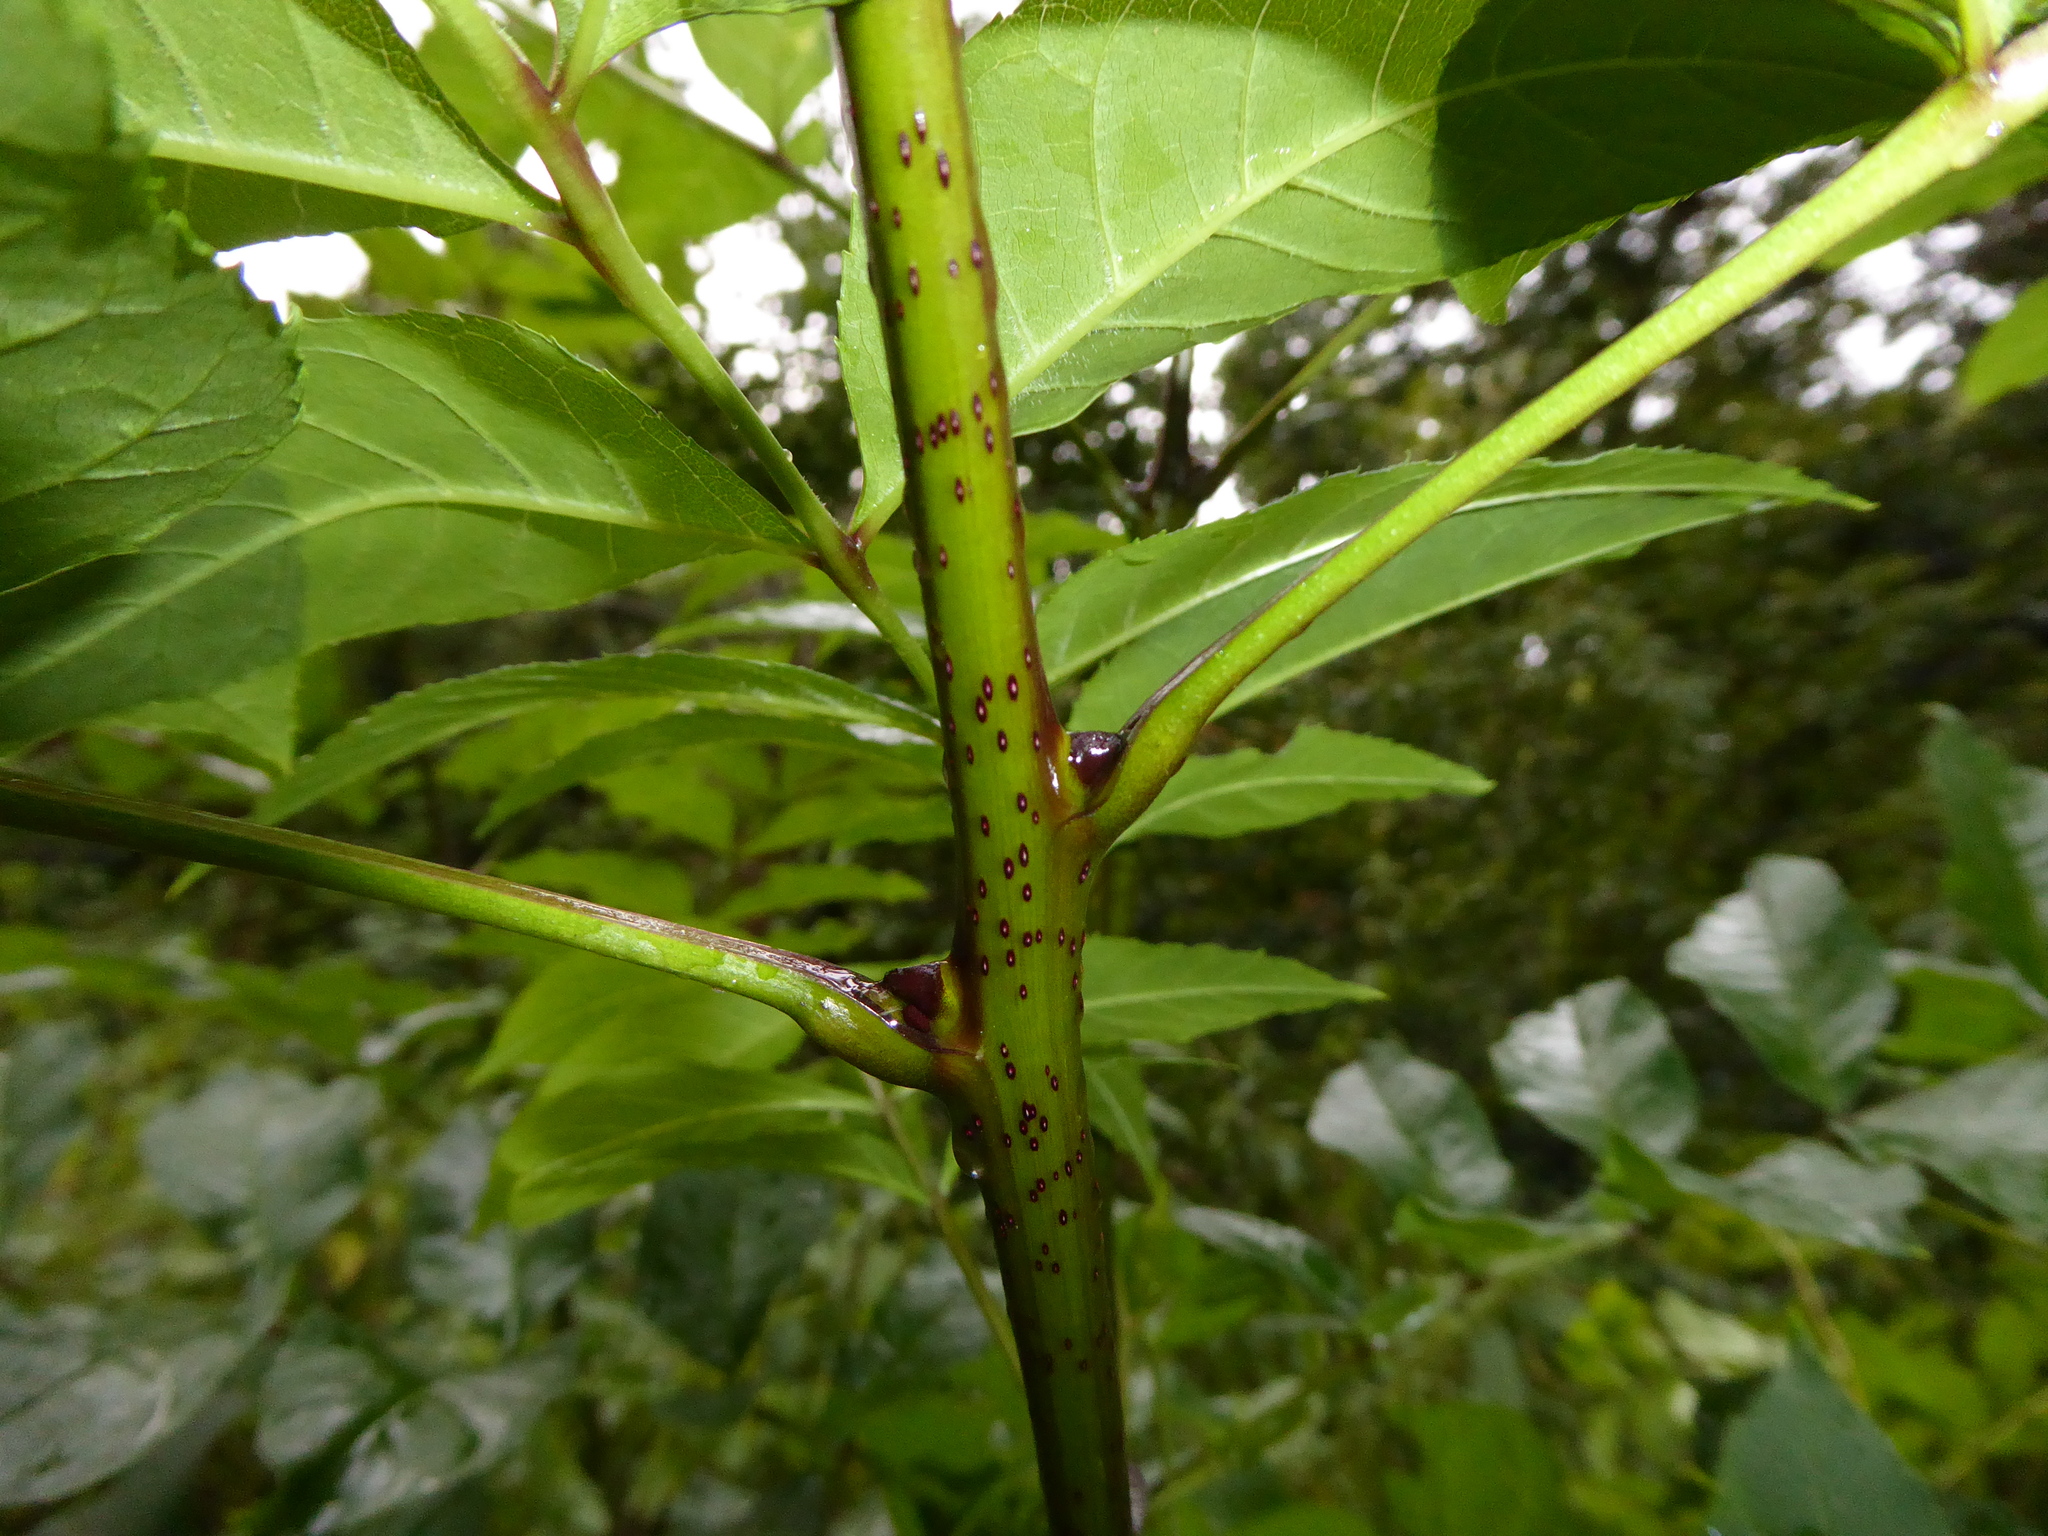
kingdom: Plantae
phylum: Tracheophyta
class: Magnoliopsida
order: Lamiales
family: Oleaceae
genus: Fraxinus
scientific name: Fraxinus excelsior
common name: European ash
